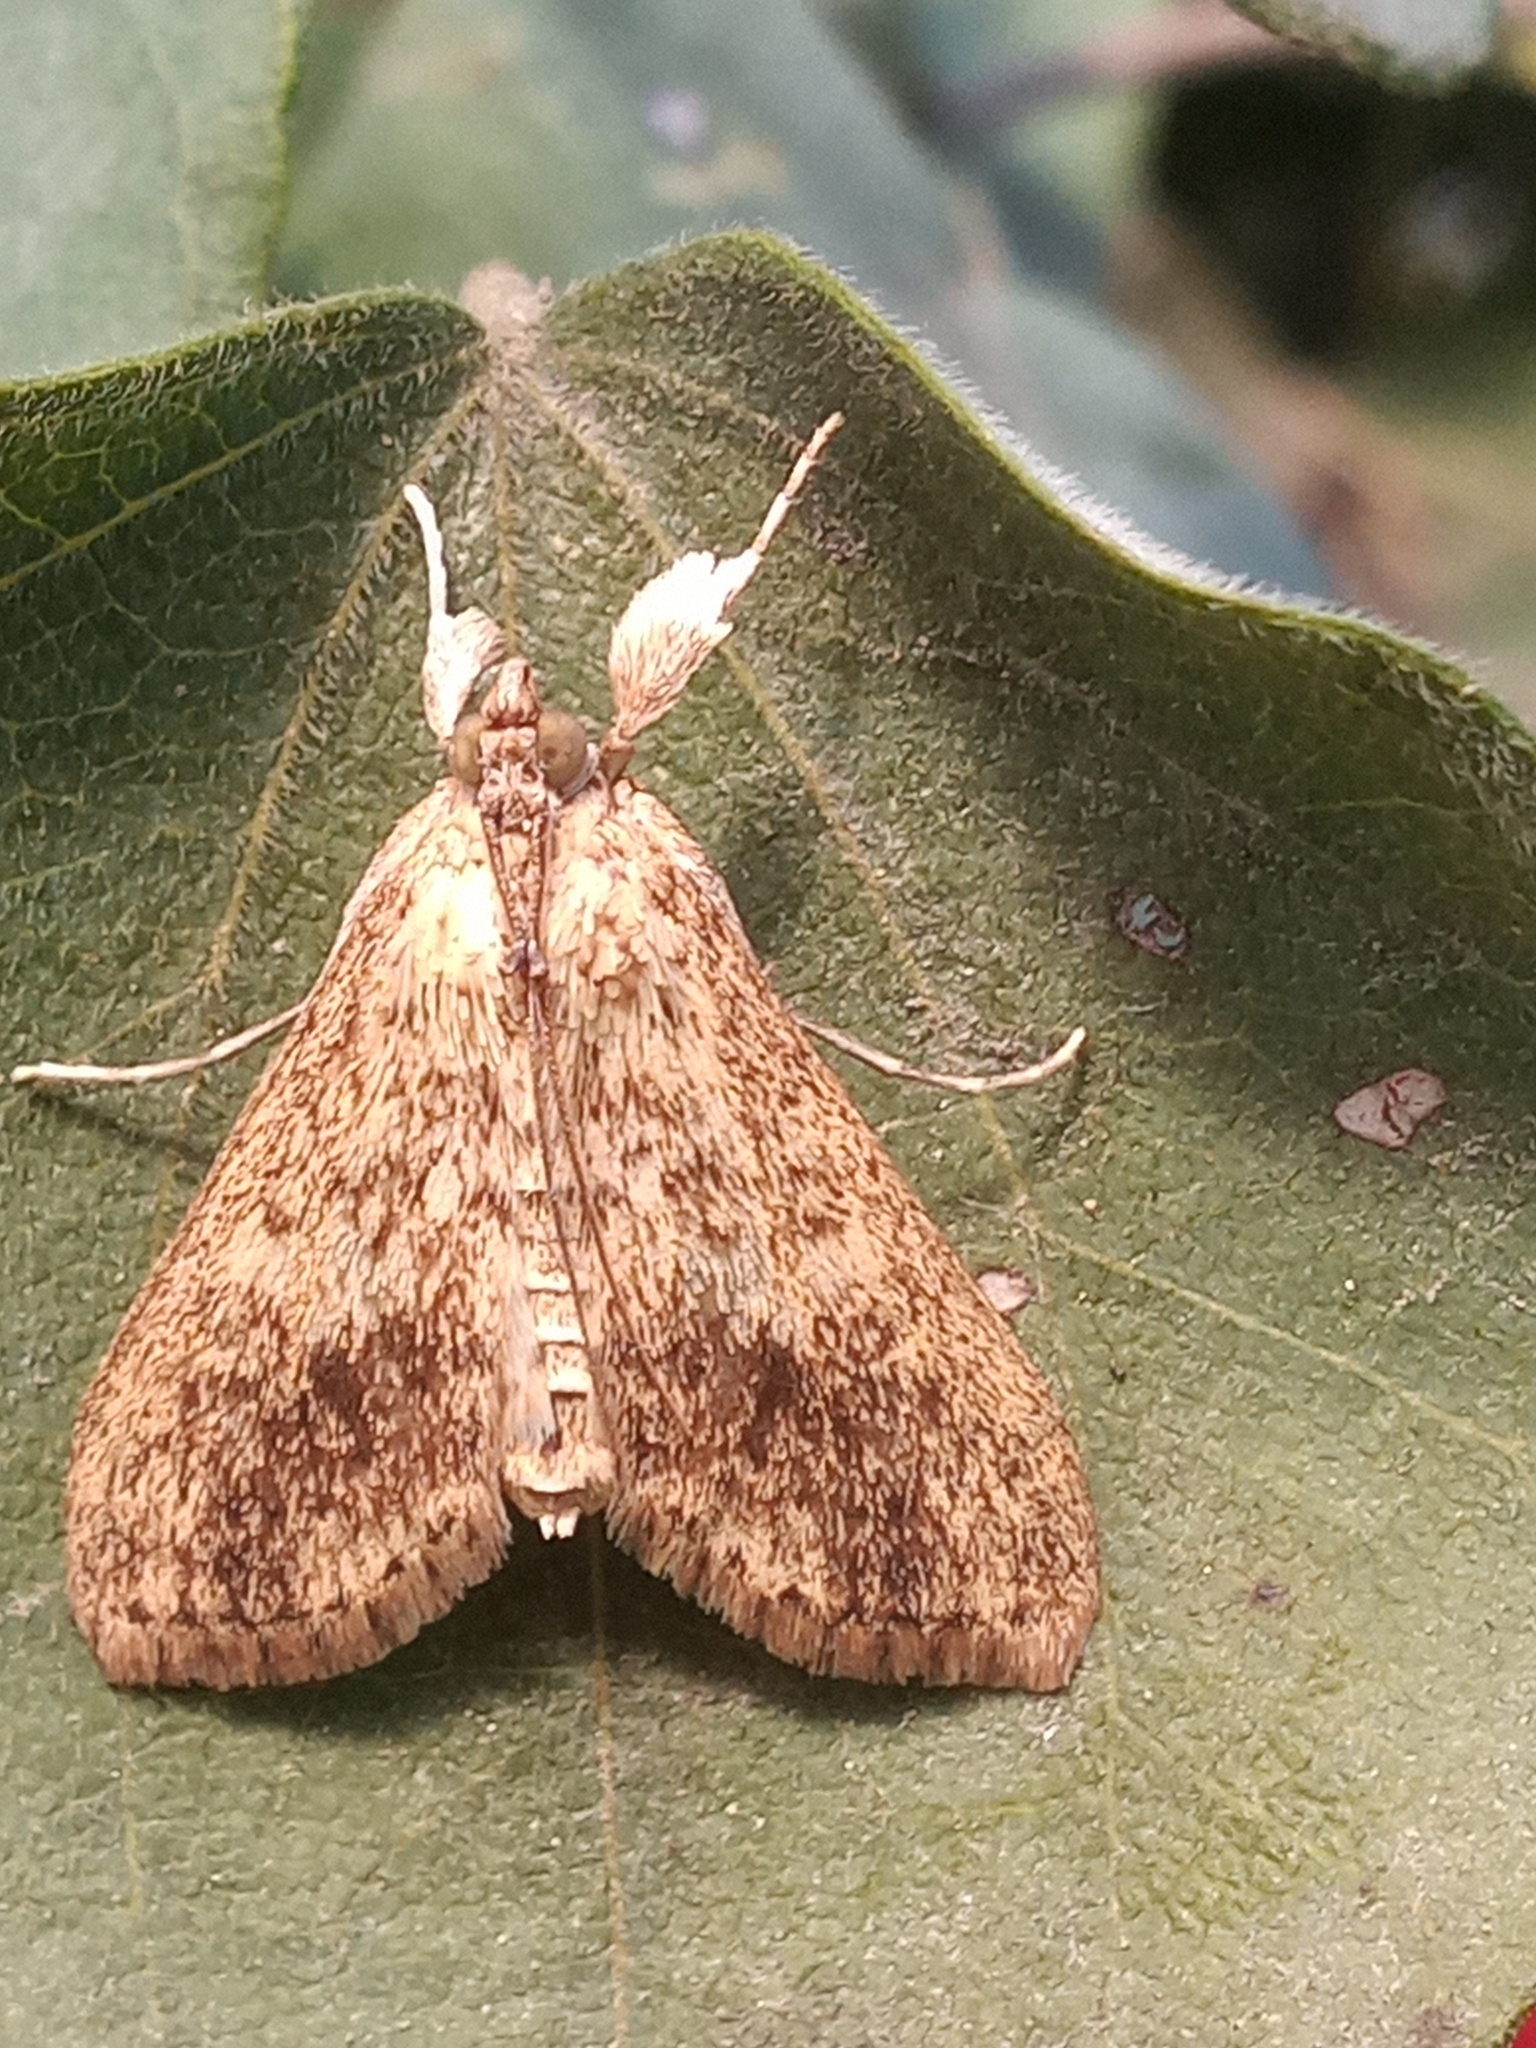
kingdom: Animalia
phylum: Arthropoda
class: Insecta
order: Lepidoptera
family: Crambidae
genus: Asciodes
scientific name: Asciodes gordialis
